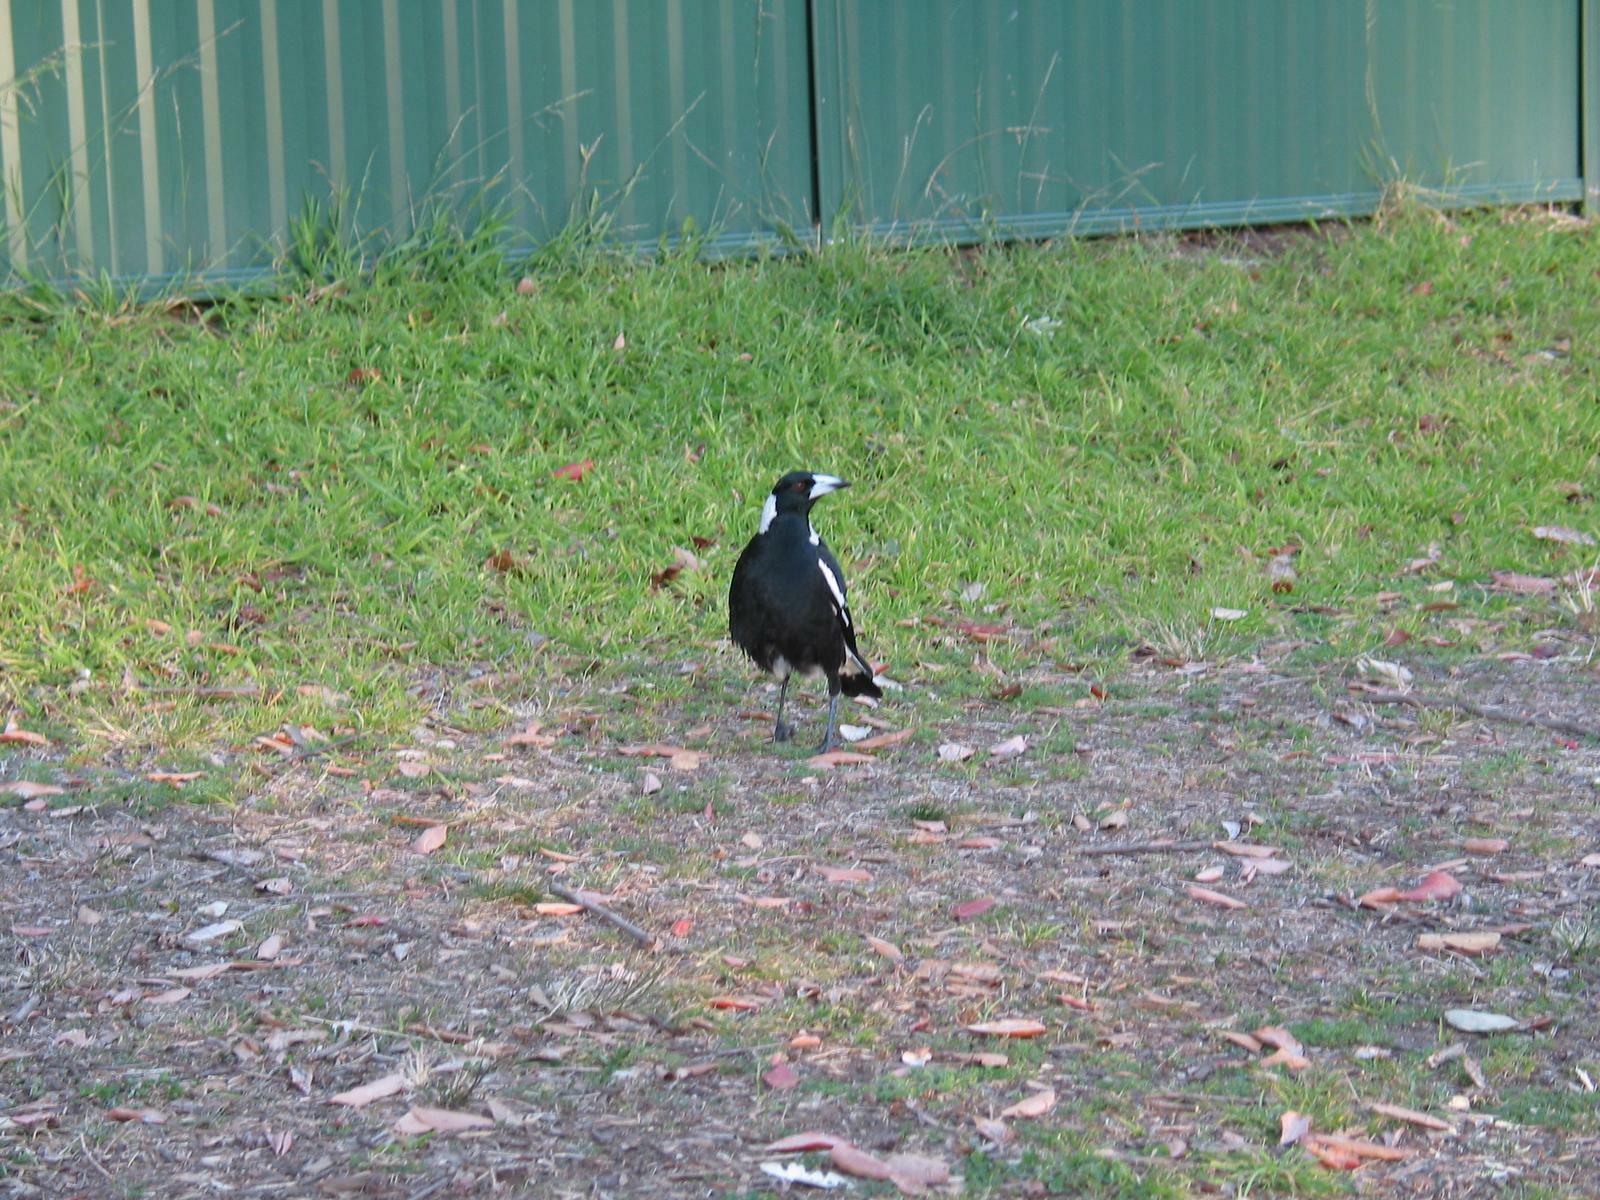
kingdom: Animalia
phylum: Chordata
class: Aves
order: Passeriformes
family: Cracticidae
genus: Gymnorhina
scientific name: Gymnorhina tibicen
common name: Australian magpie
